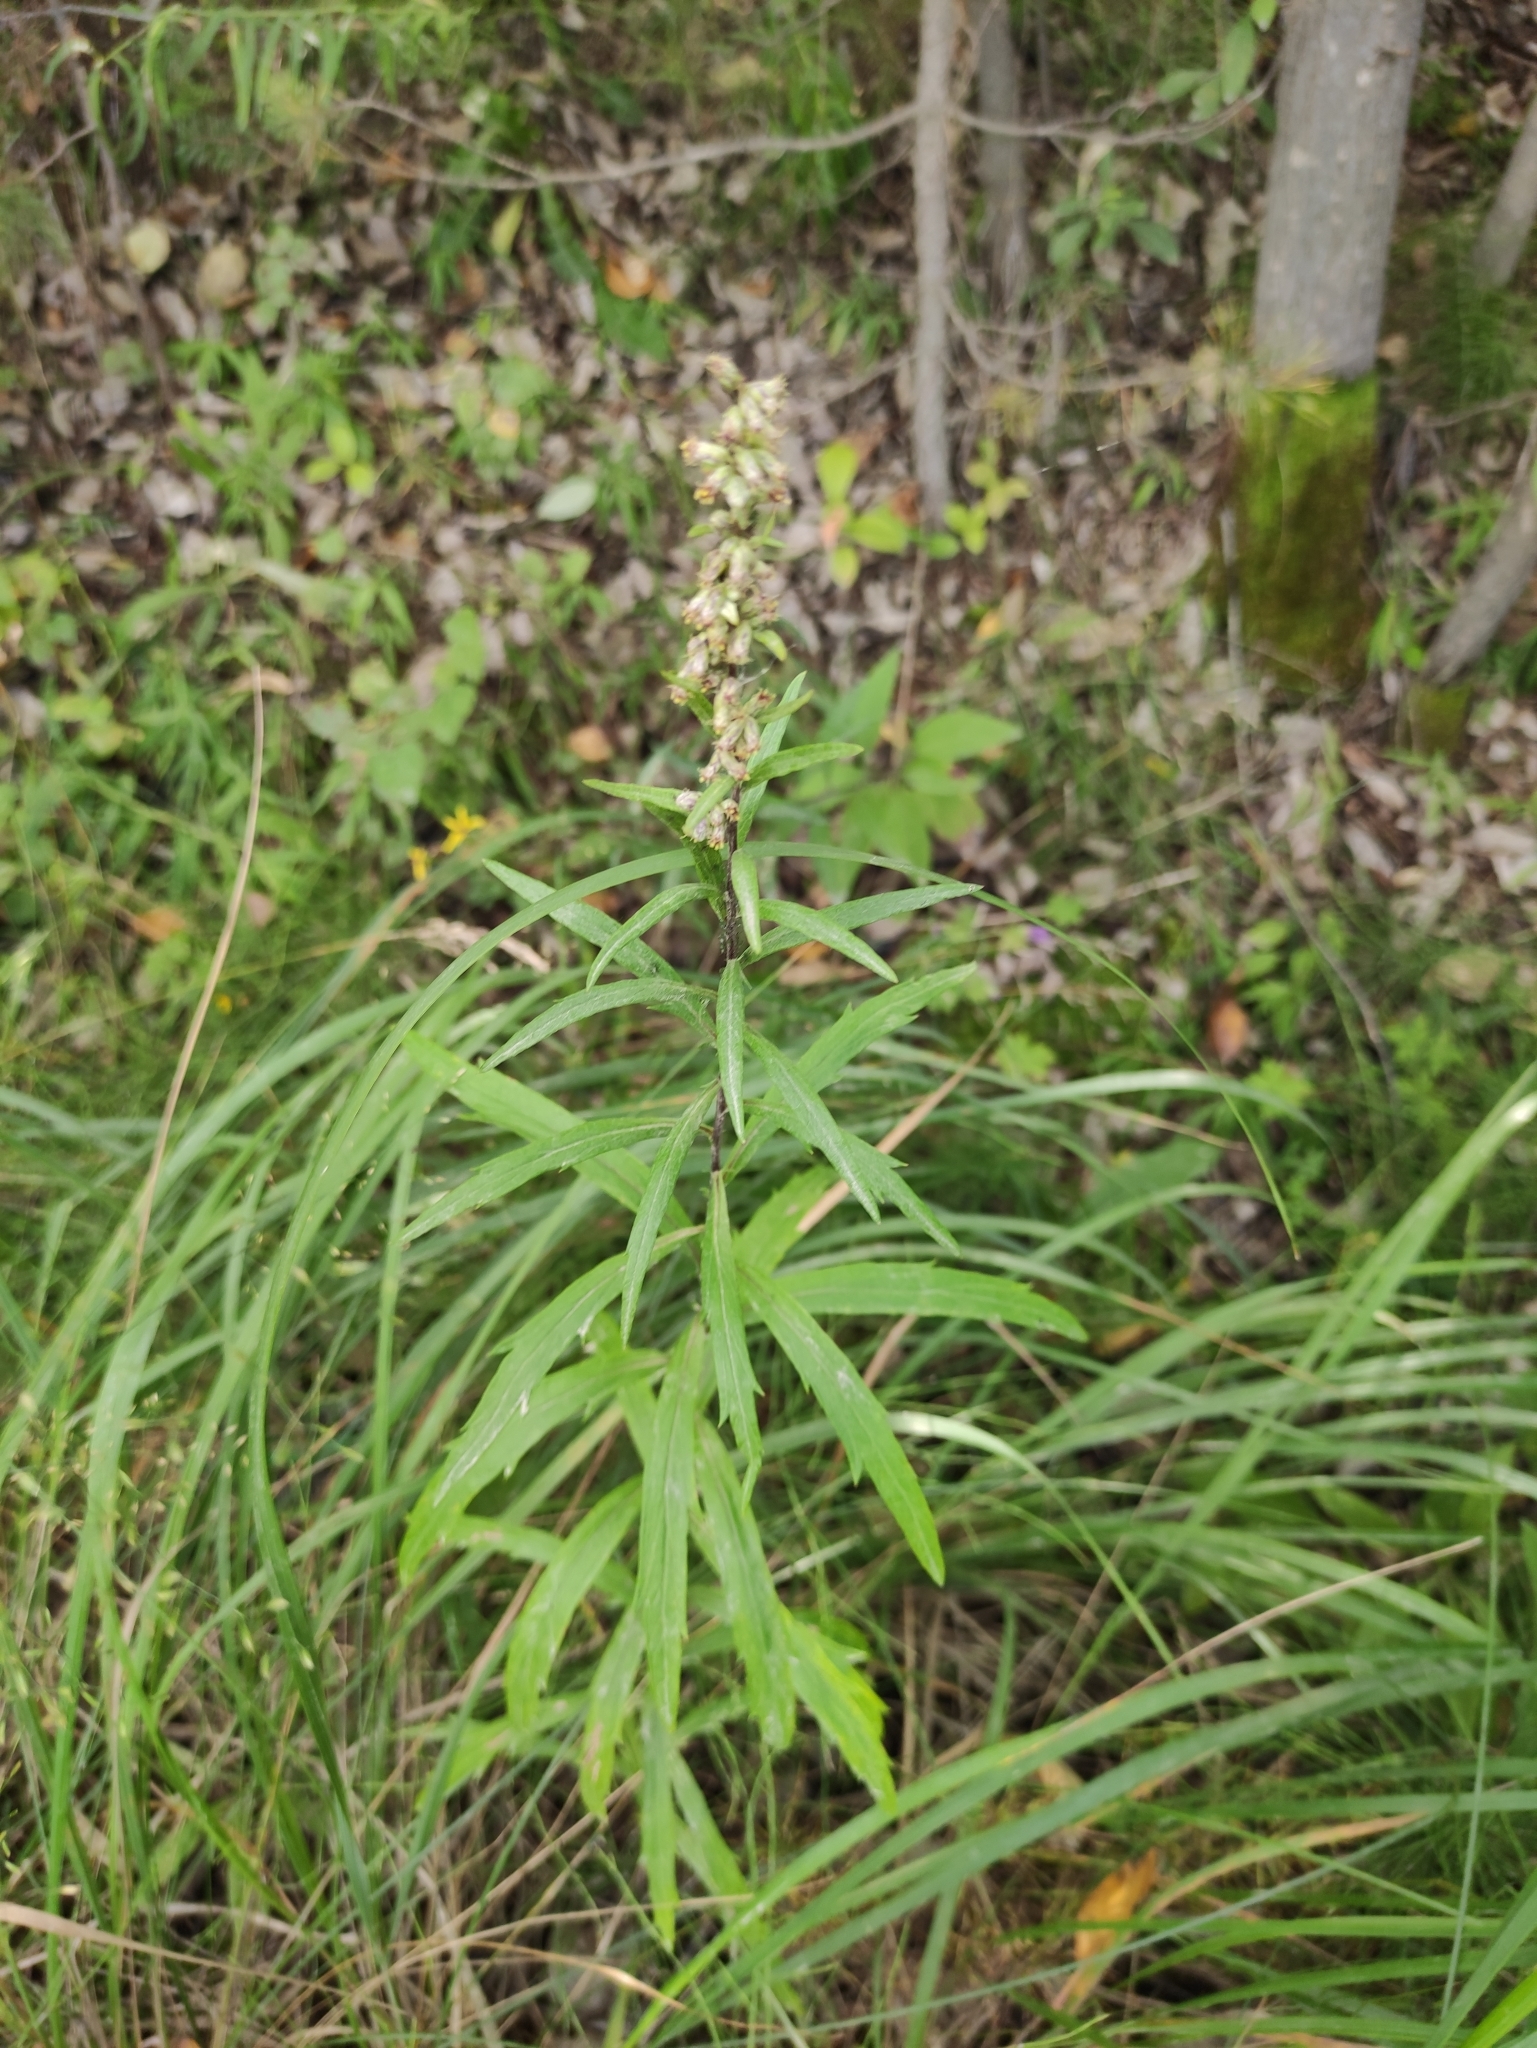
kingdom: Plantae
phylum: Tracheophyta
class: Magnoliopsida
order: Asterales
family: Asteraceae
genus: Artemisia
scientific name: Artemisia integrifolia
